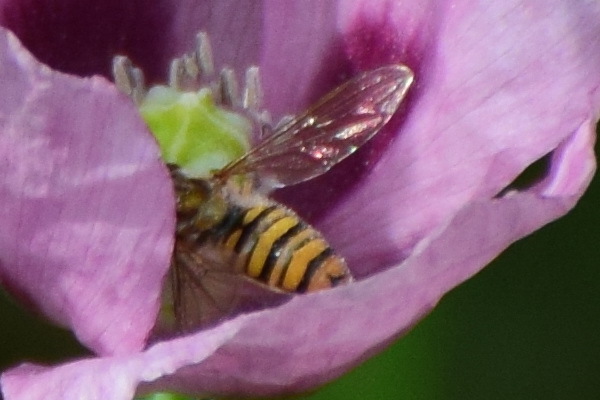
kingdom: Animalia
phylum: Arthropoda
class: Insecta
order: Diptera
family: Syrphidae
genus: Episyrphus
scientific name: Episyrphus balteatus
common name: Marmalade hoverfly
